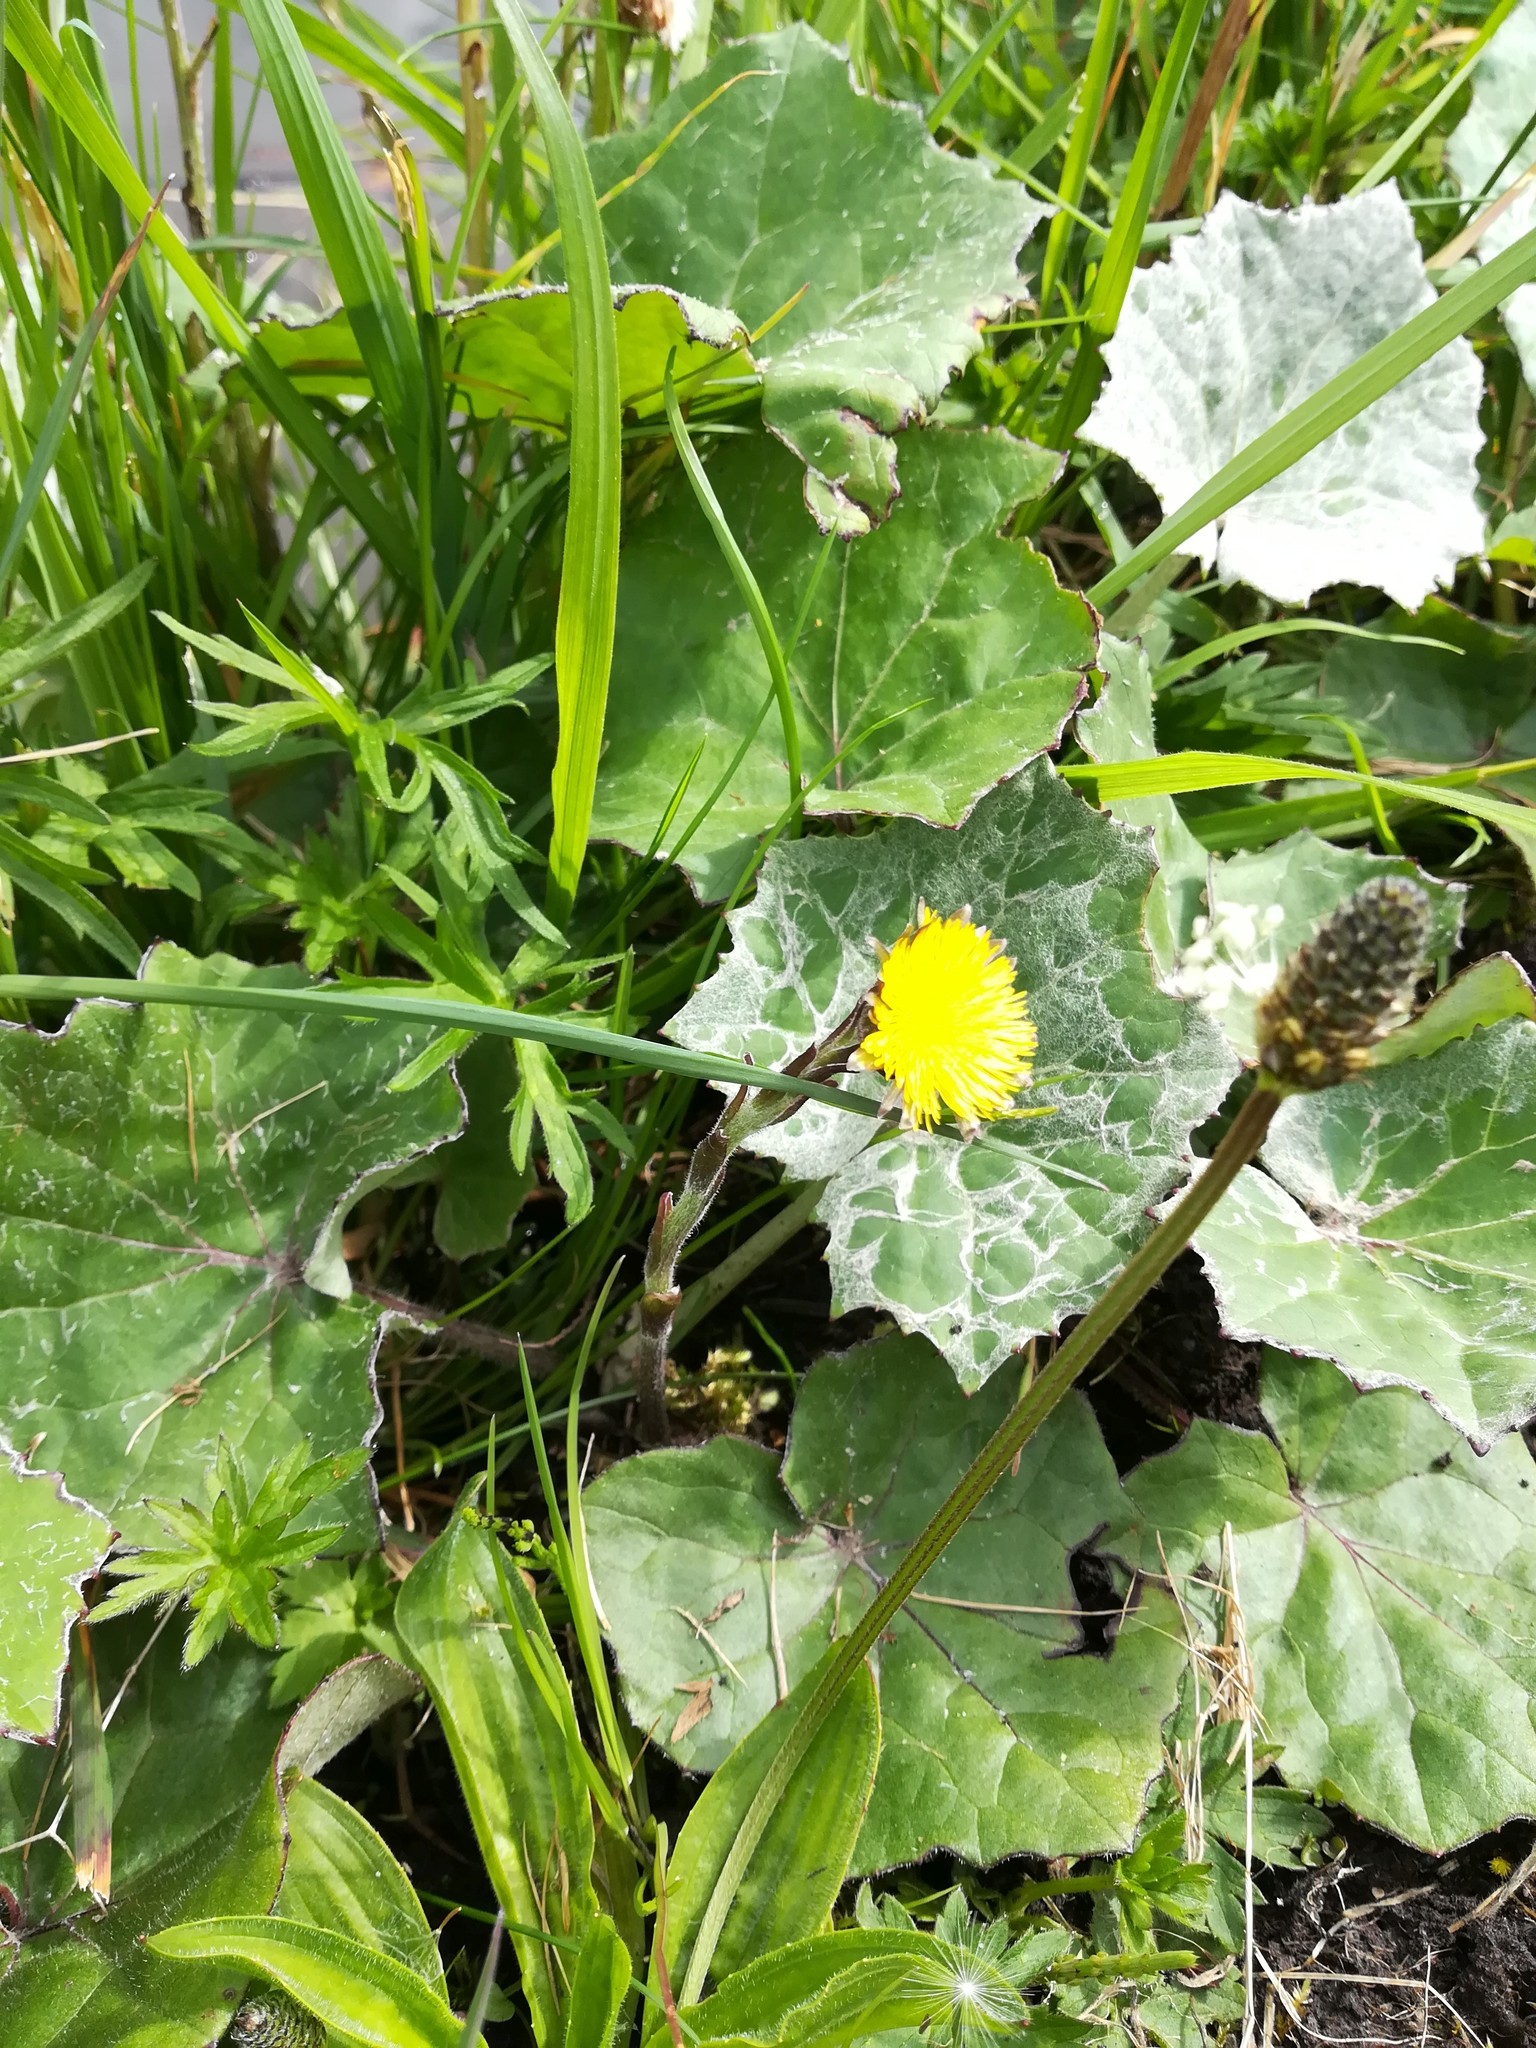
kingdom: Plantae
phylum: Tracheophyta
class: Magnoliopsida
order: Asterales
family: Asteraceae
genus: Tussilago
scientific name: Tussilago farfara
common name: Coltsfoot
